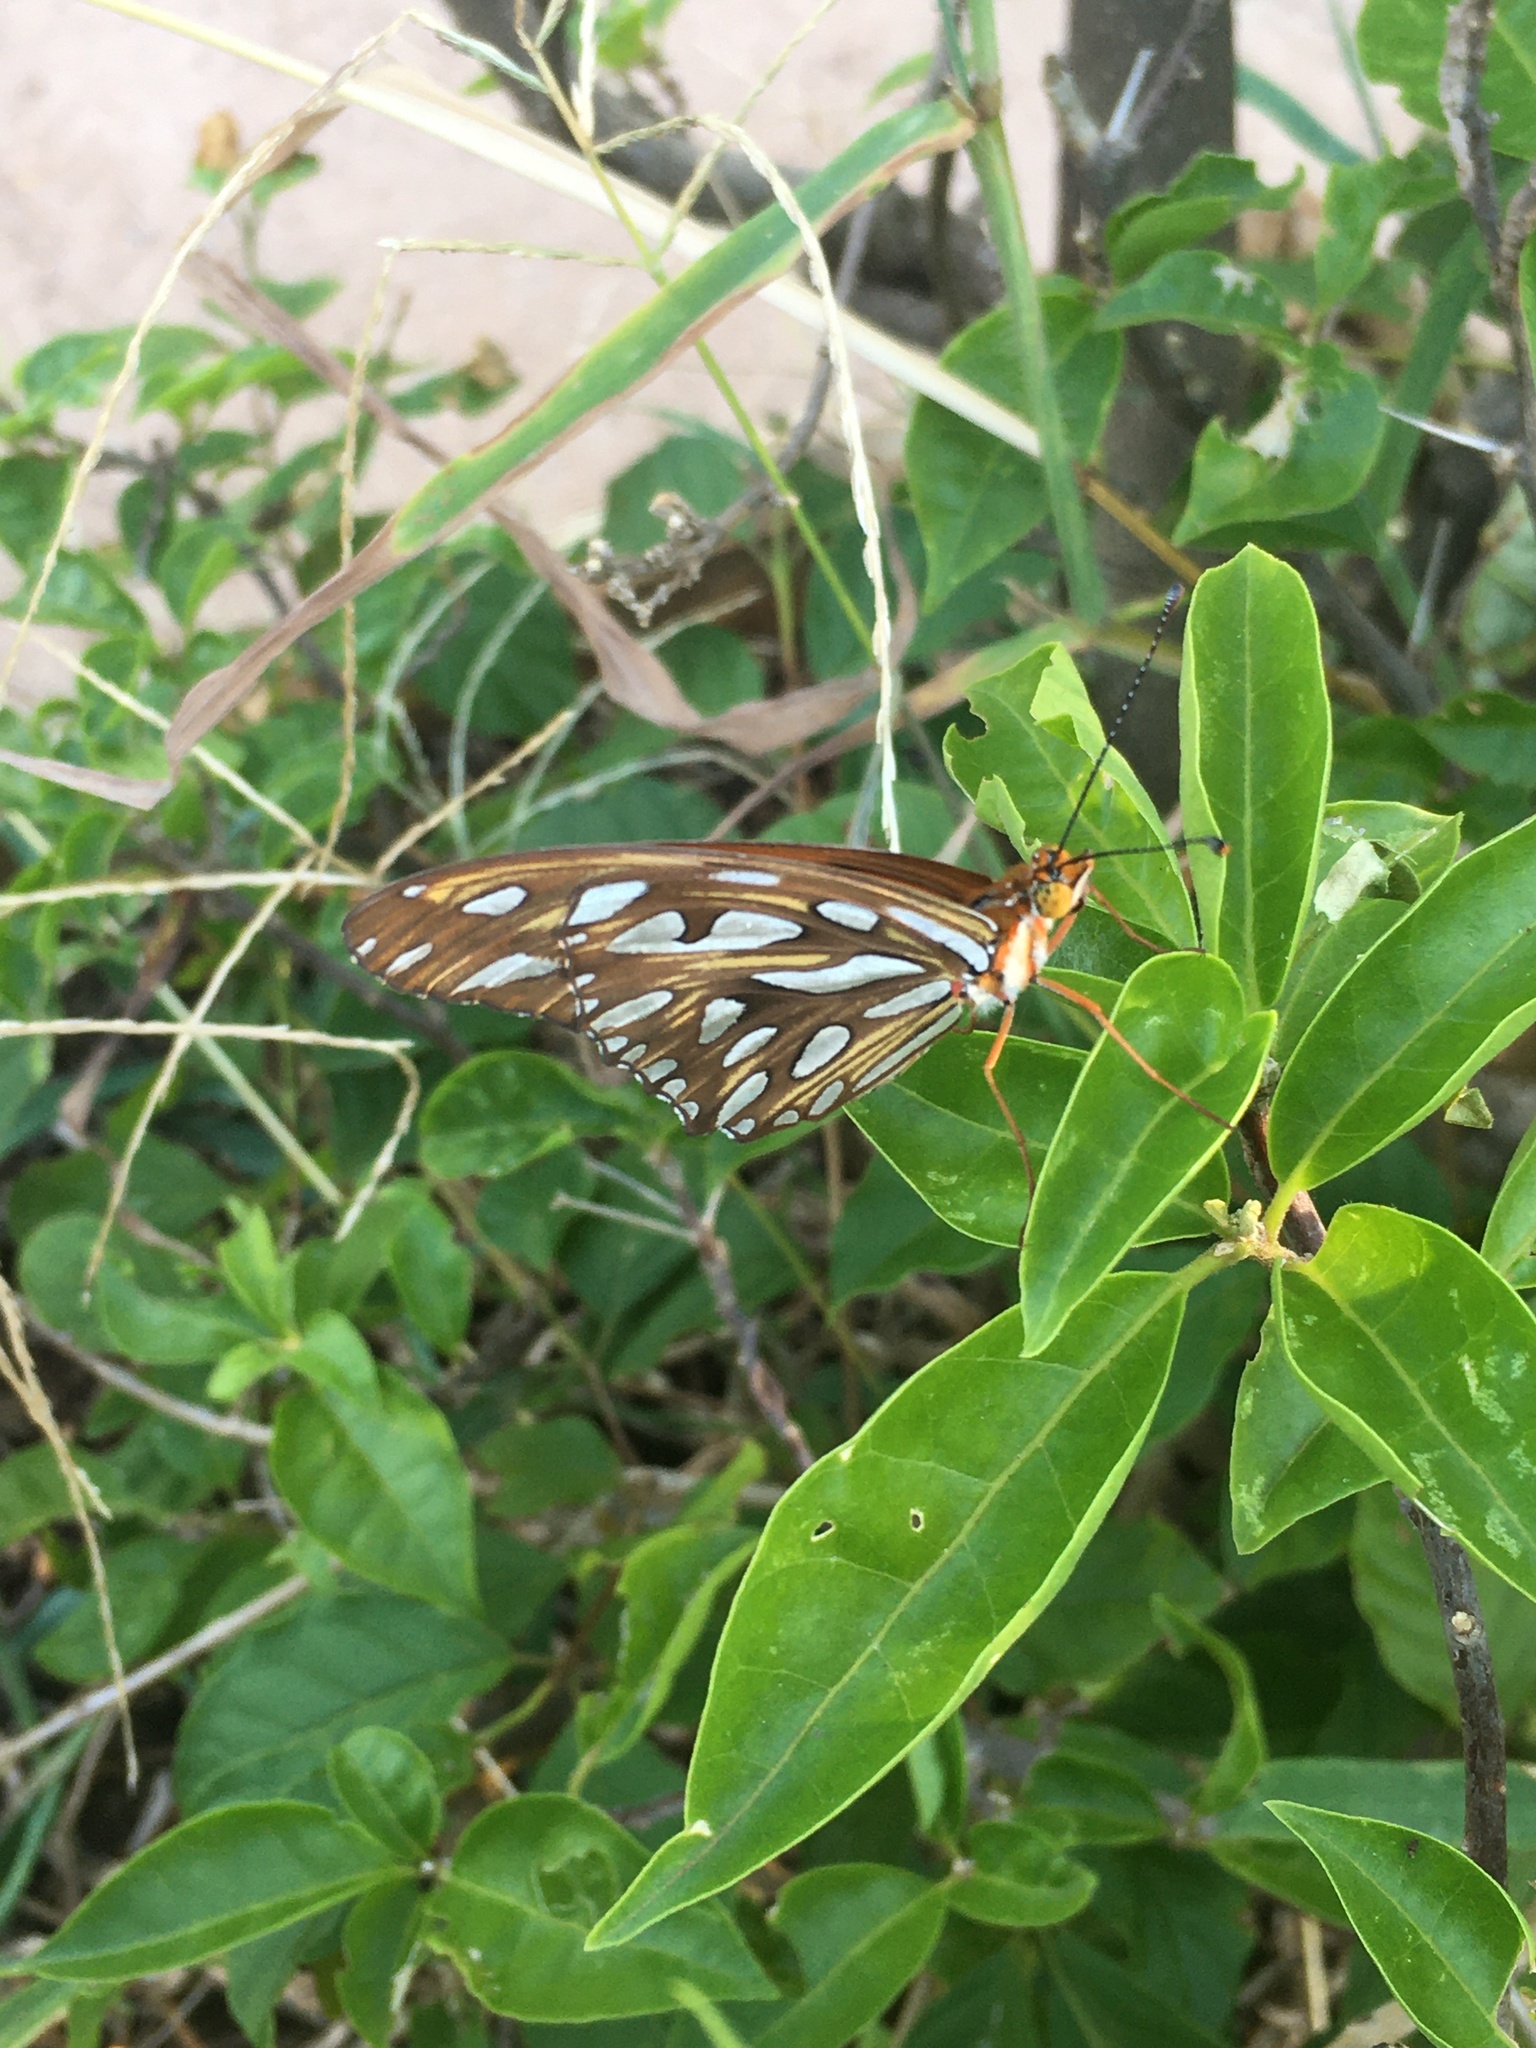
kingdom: Animalia
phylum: Arthropoda
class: Insecta
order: Lepidoptera
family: Nymphalidae
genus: Dione
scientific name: Dione vanillae
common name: Gulf fritillary
